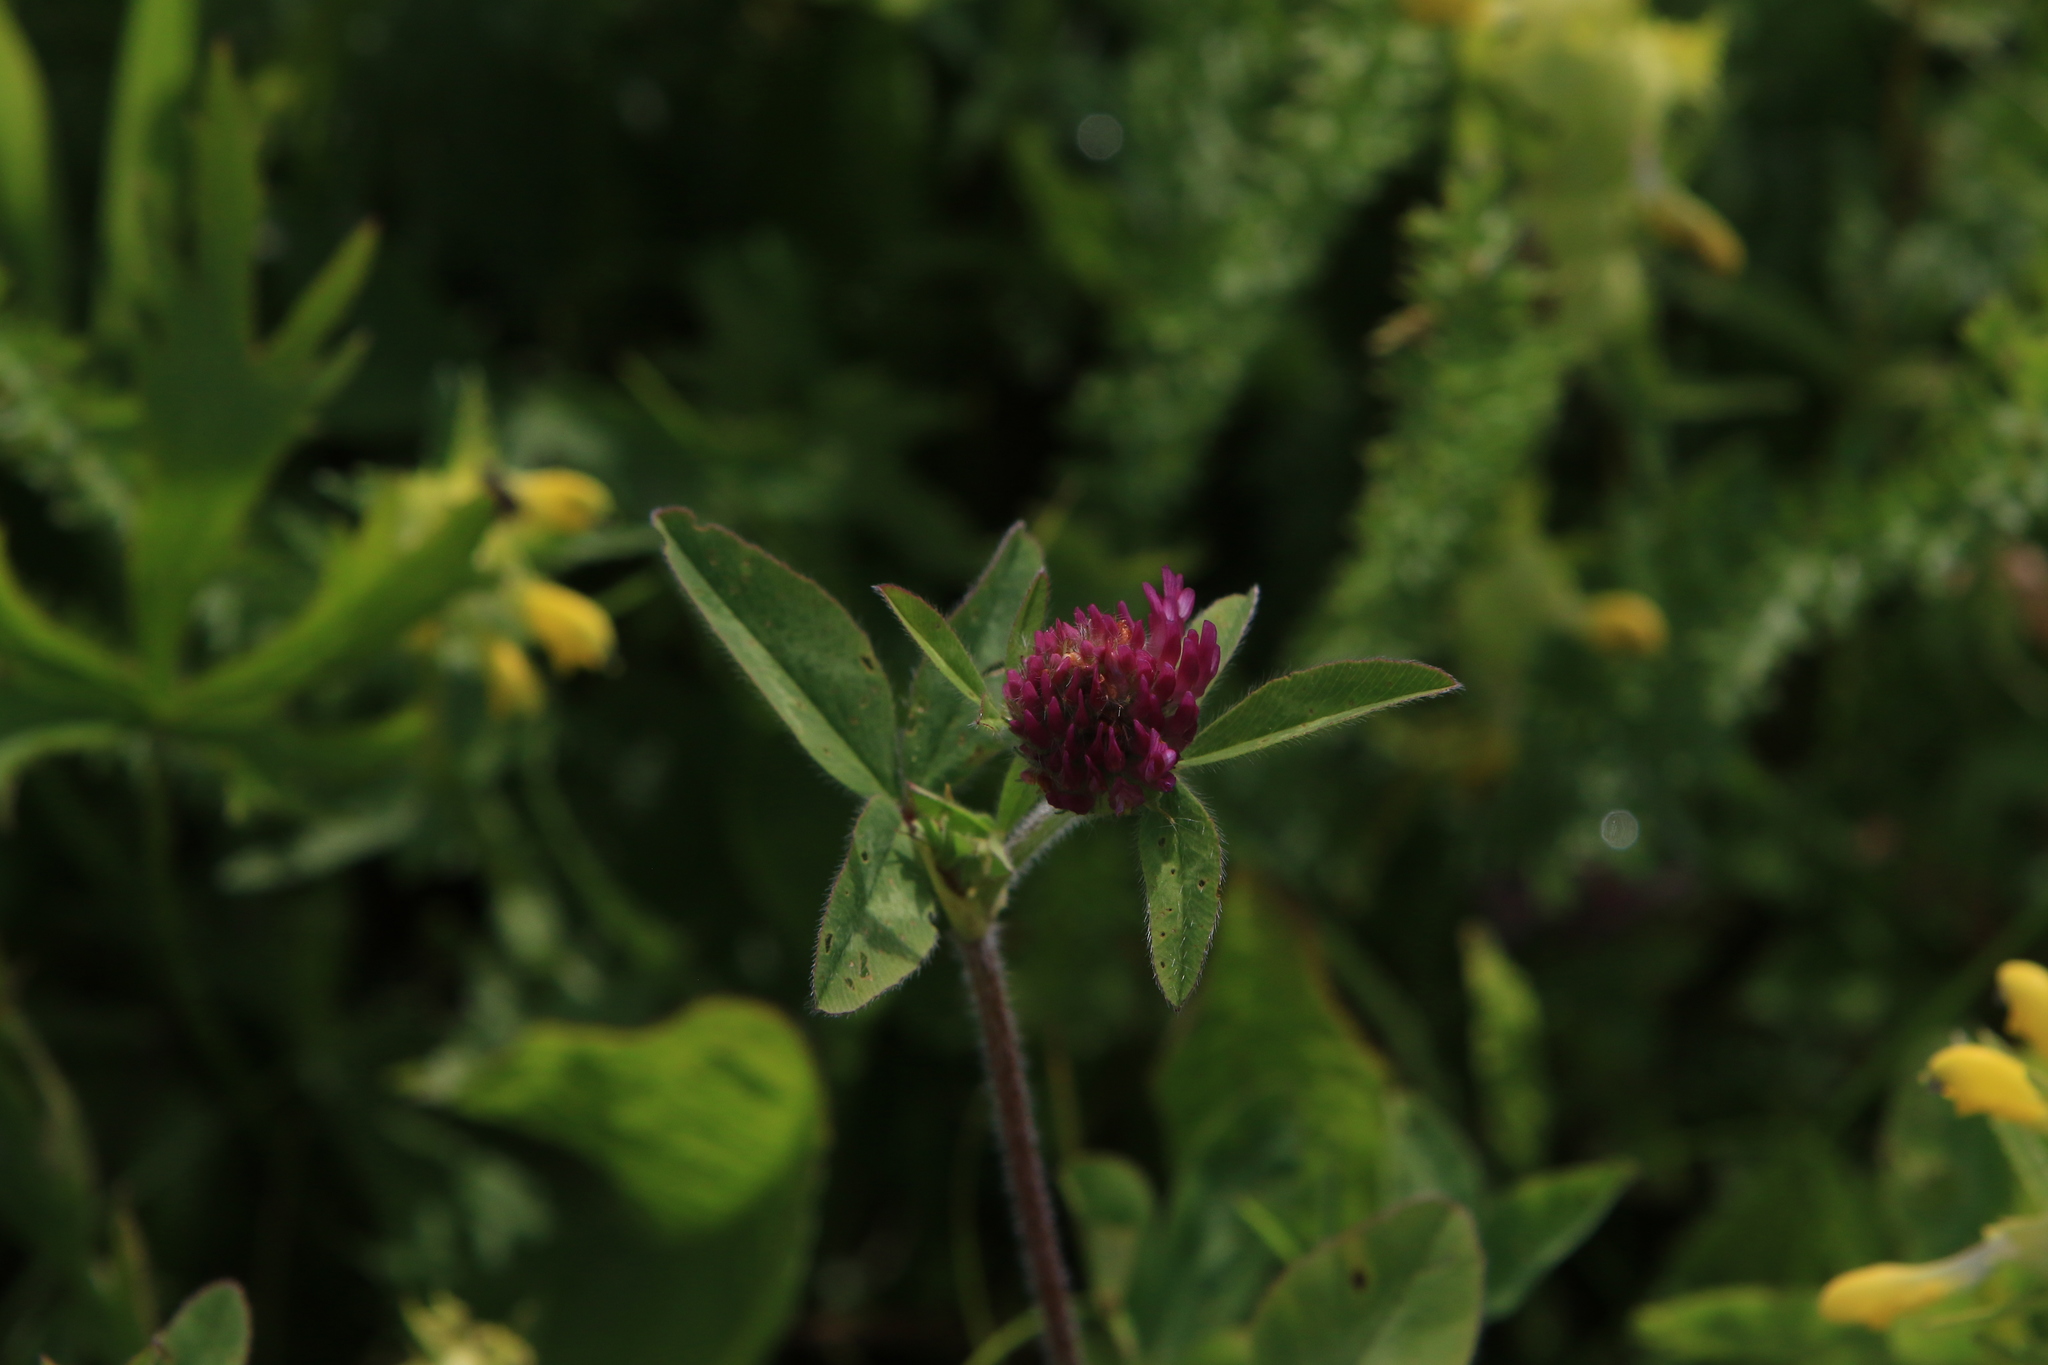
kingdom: Plantae
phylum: Tracheophyta
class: Magnoliopsida
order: Fabales
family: Fabaceae
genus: Trifolium
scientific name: Trifolium pratense
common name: Red clover
